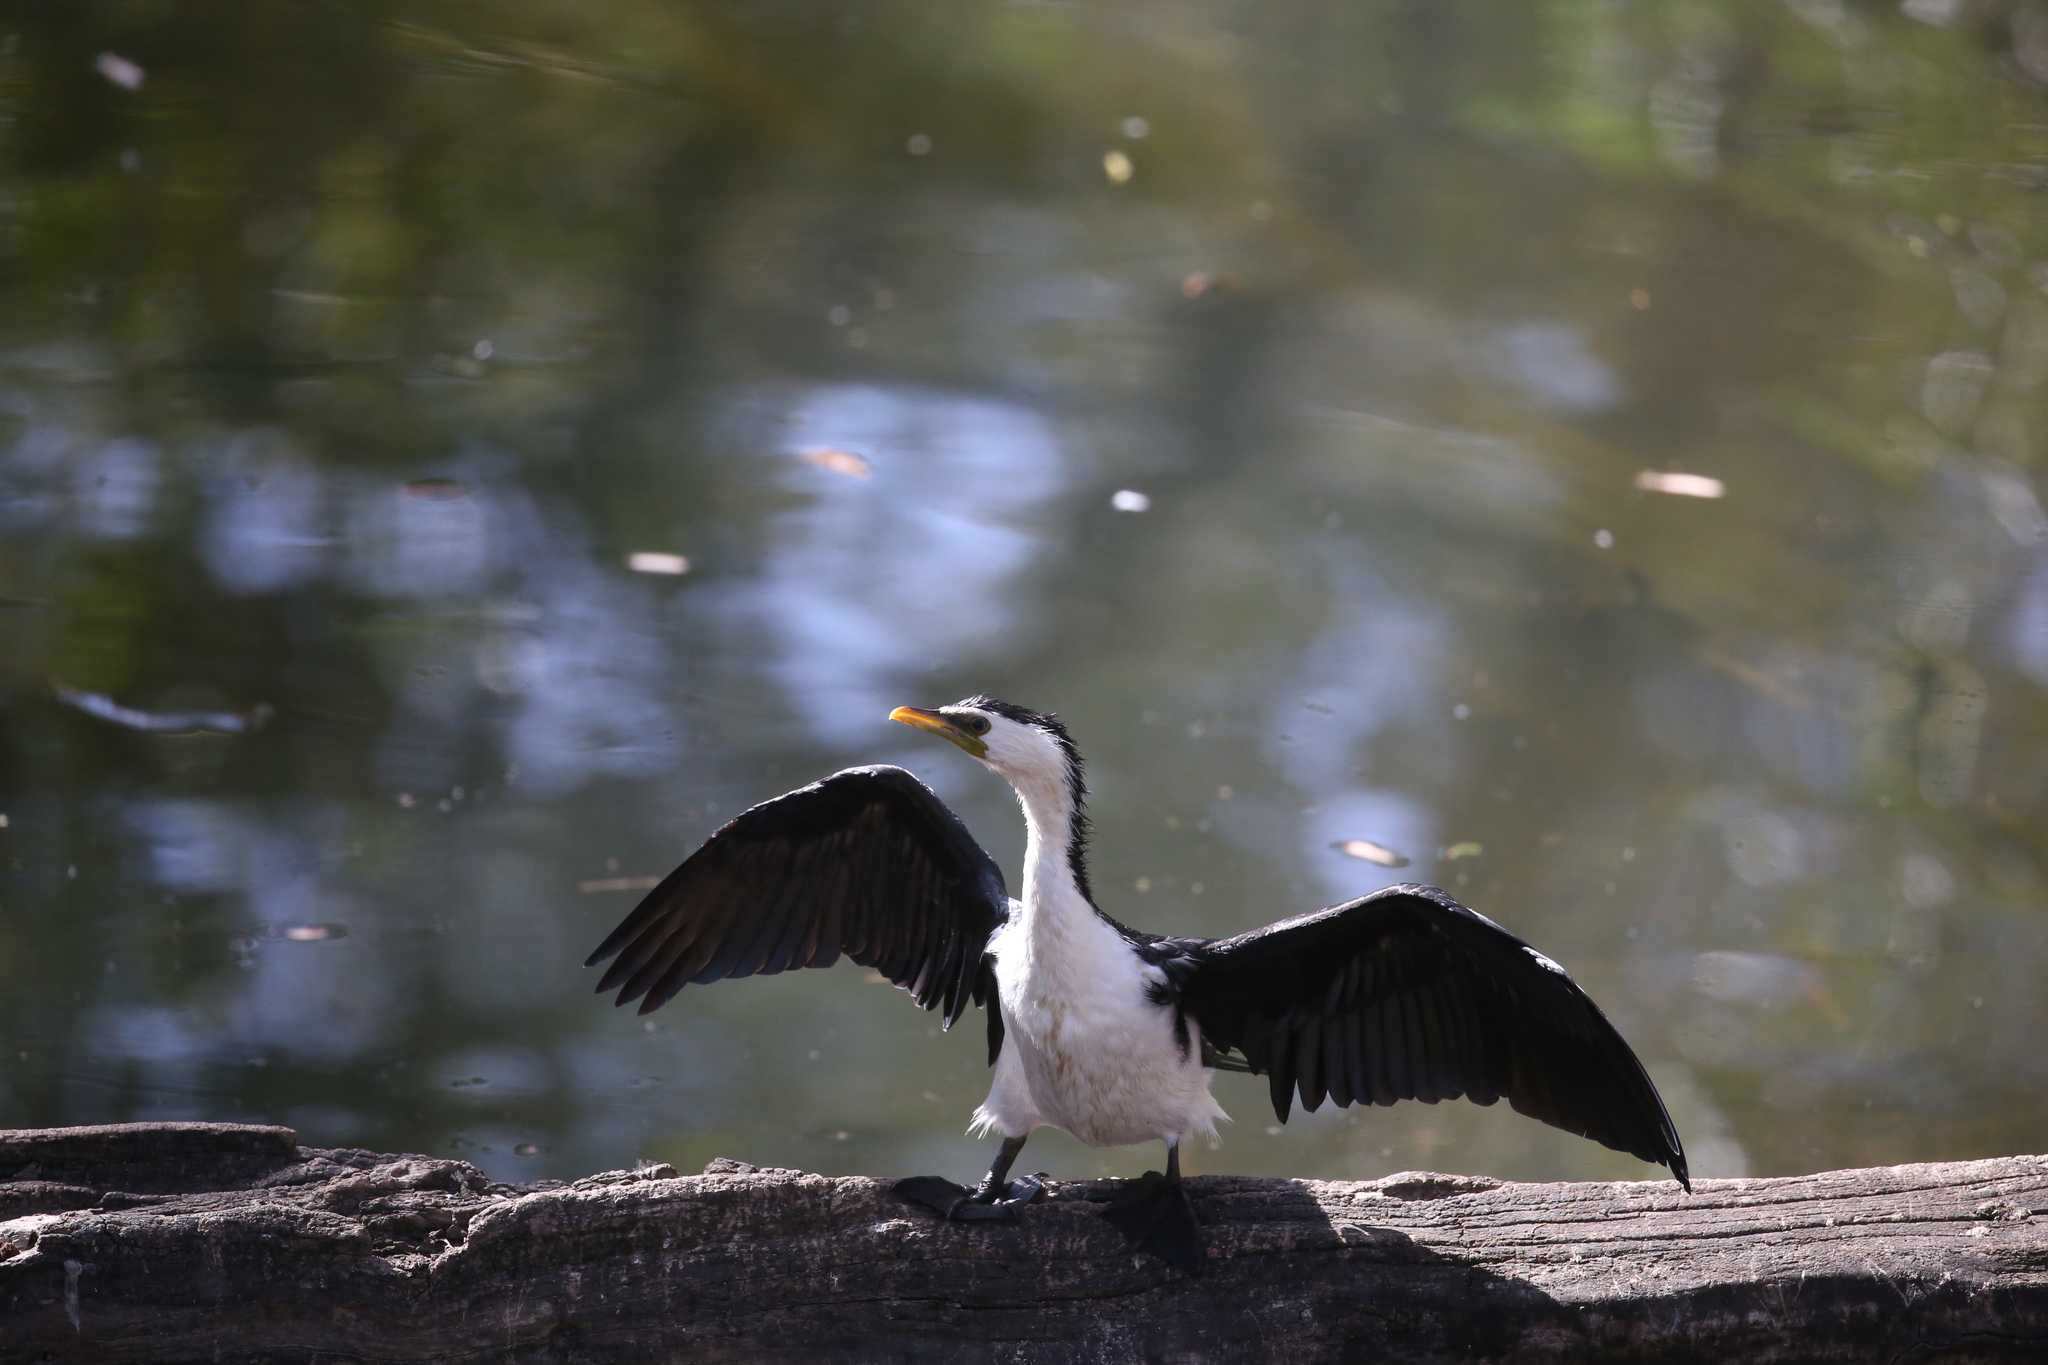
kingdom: Animalia
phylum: Chordata
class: Aves
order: Suliformes
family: Phalacrocoracidae
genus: Microcarbo
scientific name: Microcarbo melanoleucos
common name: Little pied cormorant
